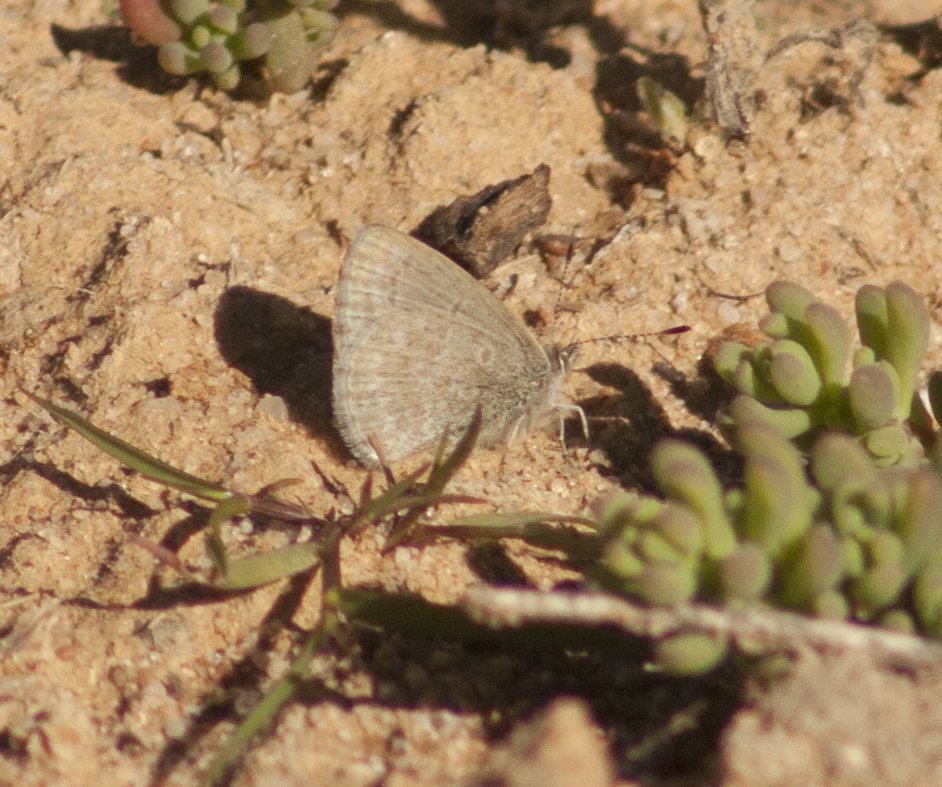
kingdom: Animalia
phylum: Arthropoda
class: Insecta
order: Lepidoptera
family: Lycaenidae
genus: Zizina
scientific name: Zizina labradus
